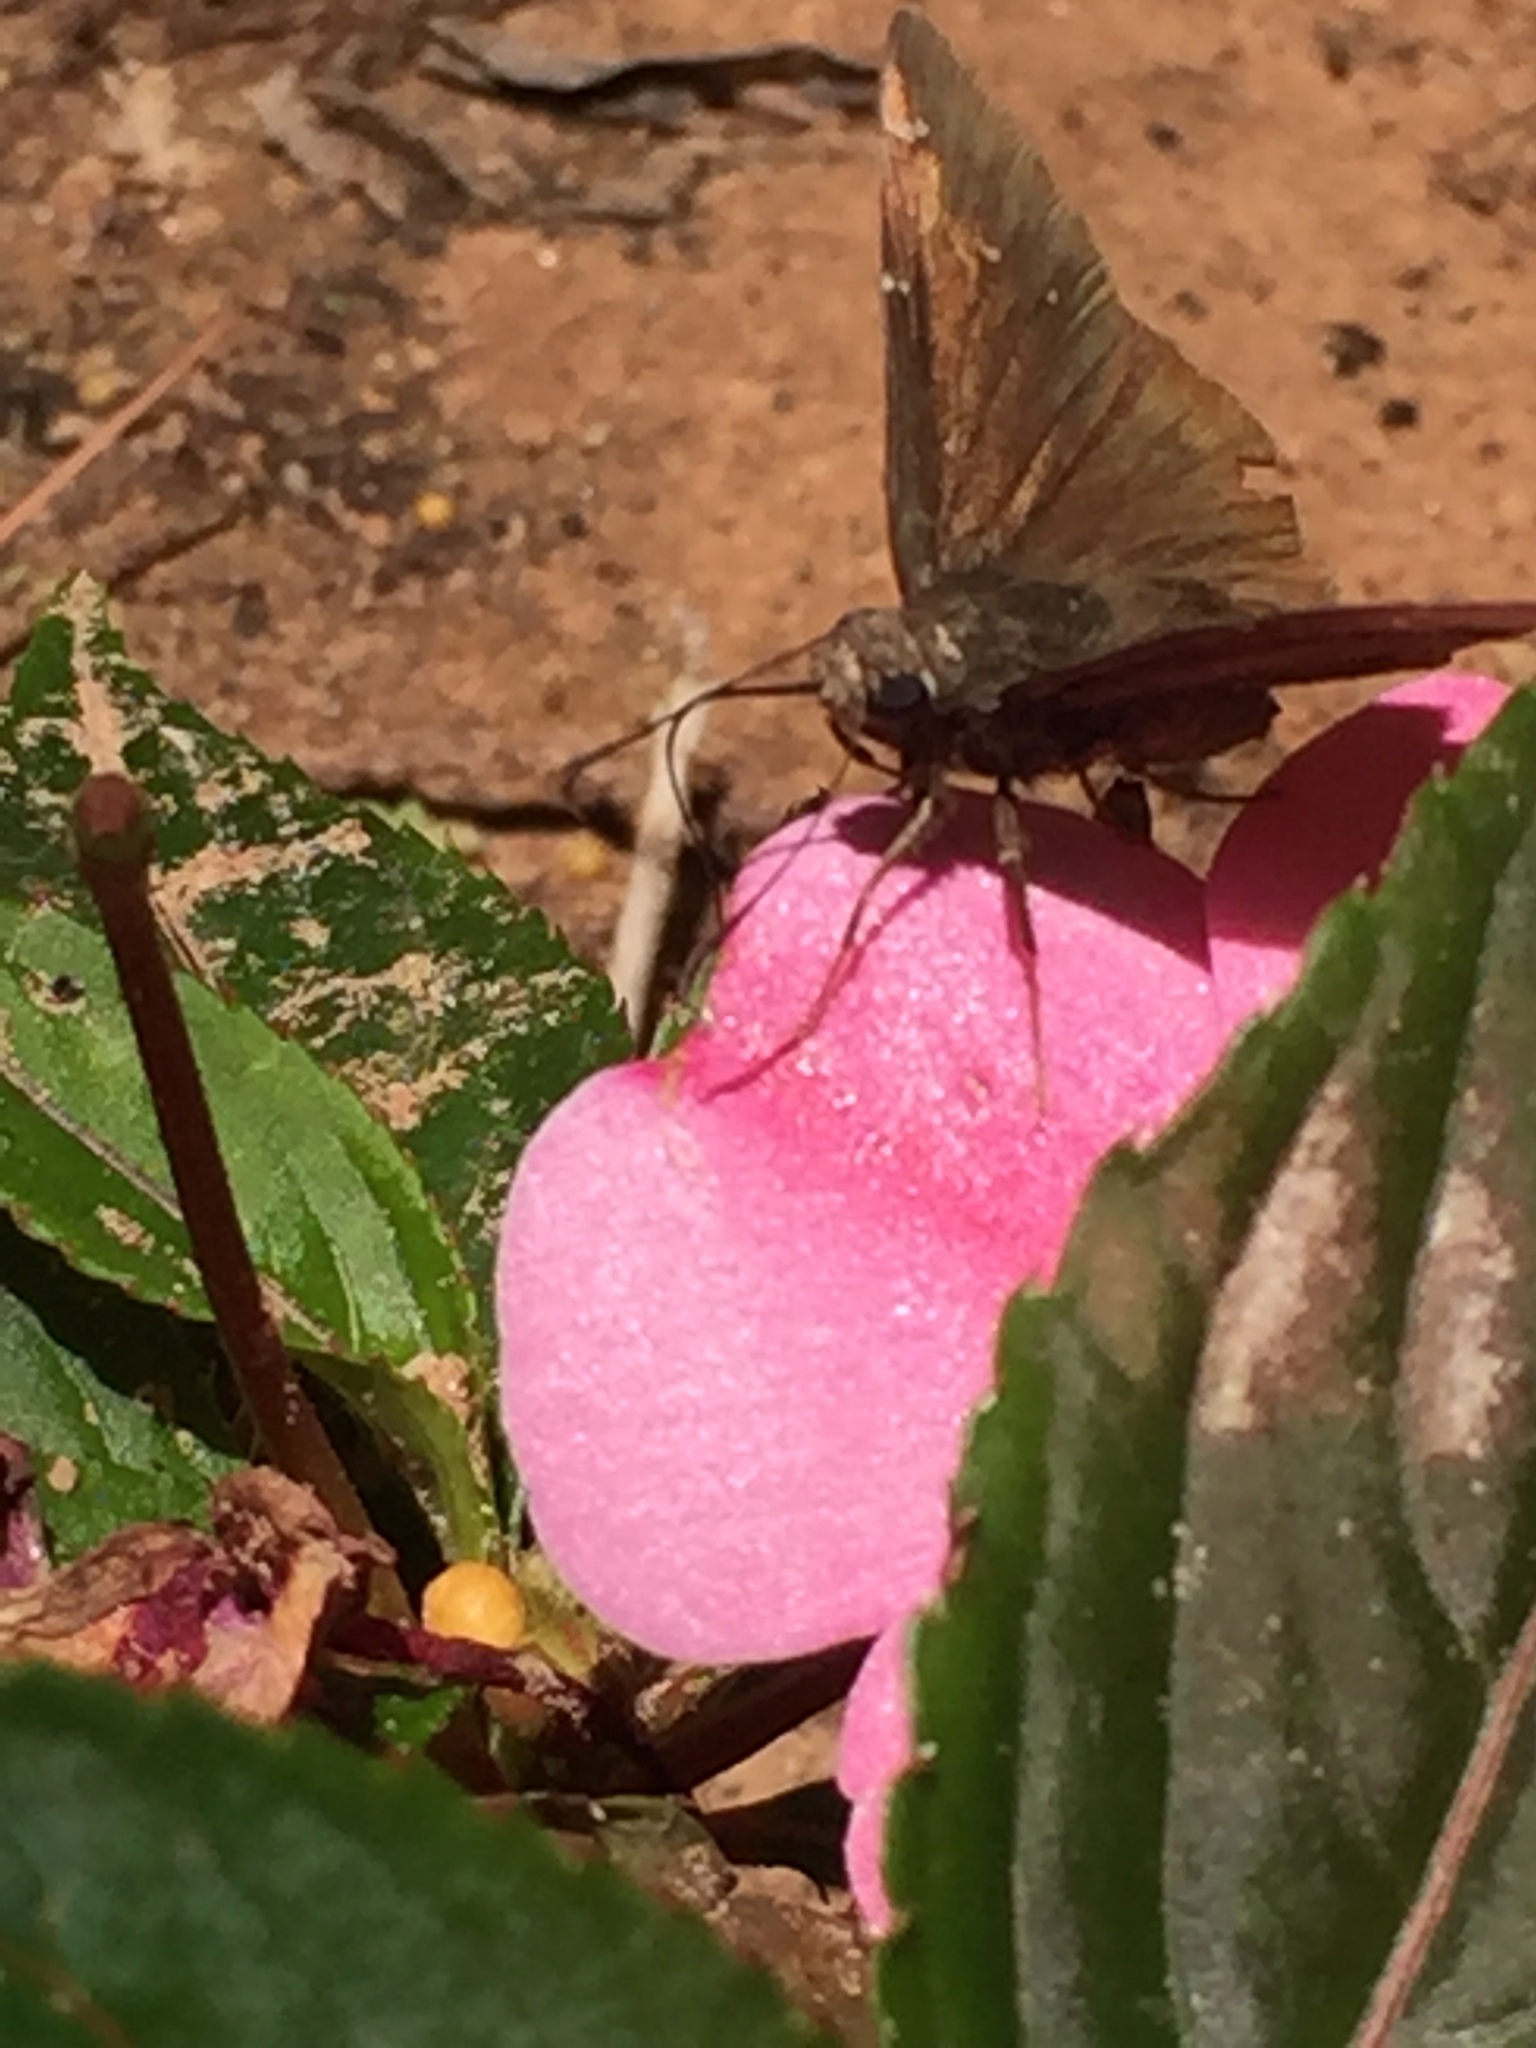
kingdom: Animalia
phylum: Arthropoda
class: Insecta
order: Lepidoptera
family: Hesperiidae
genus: Thorybes
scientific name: Thorybes pylades
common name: Northern cloudywing
